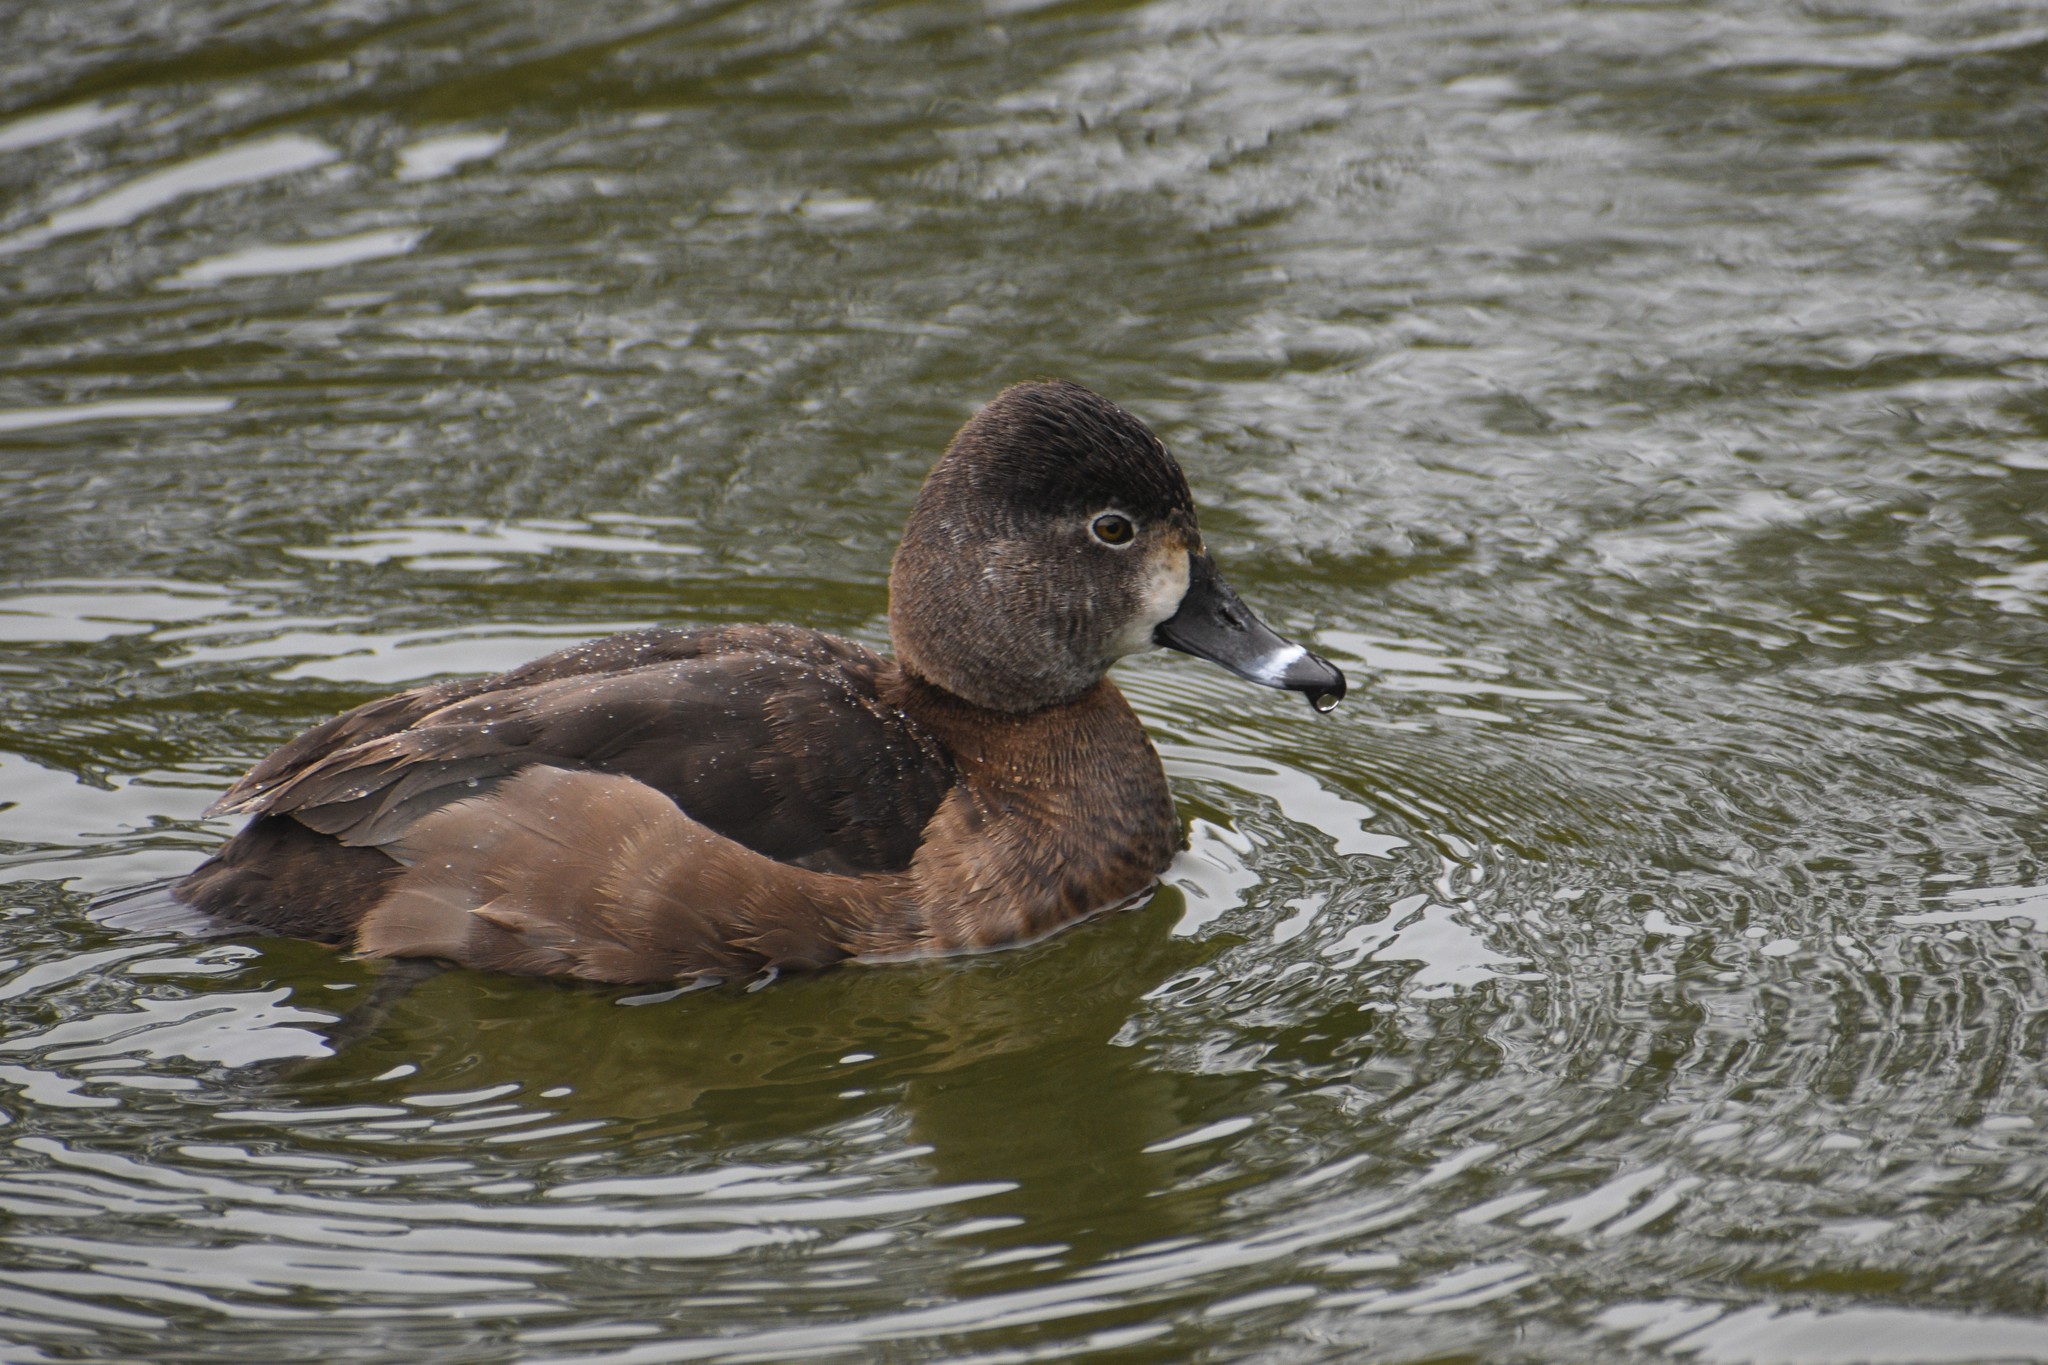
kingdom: Animalia
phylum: Chordata
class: Aves
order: Anseriformes
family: Anatidae
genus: Aythya
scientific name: Aythya collaris
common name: Ring-necked duck
